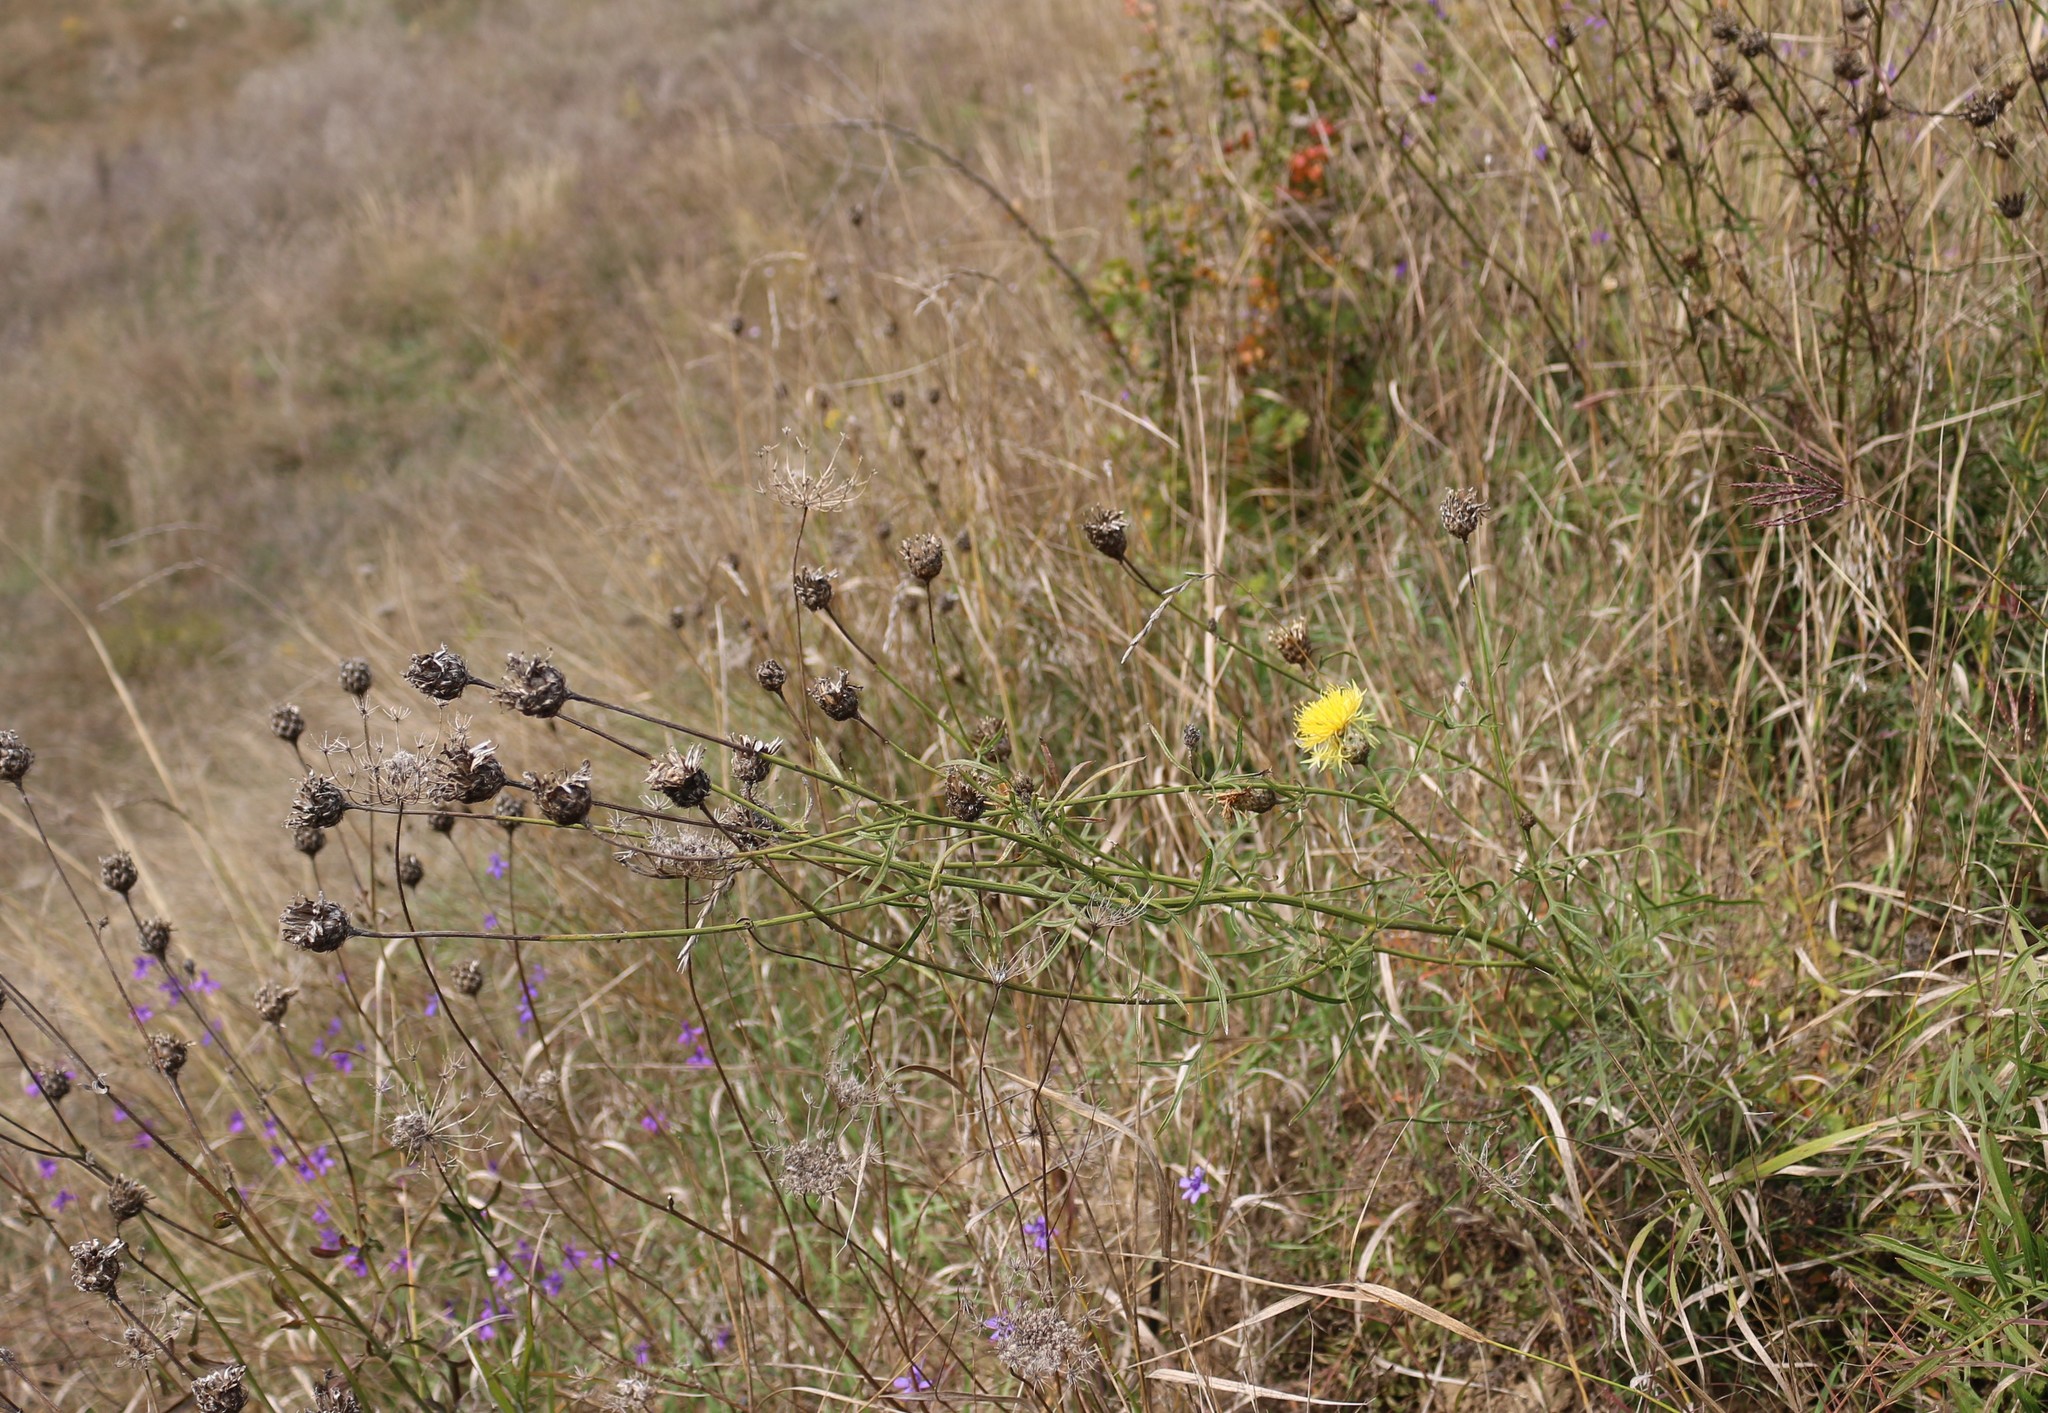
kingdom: Plantae
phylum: Tracheophyta
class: Magnoliopsida
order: Asterales
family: Asteraceae
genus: Centaurea
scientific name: Centaurea orientalis
